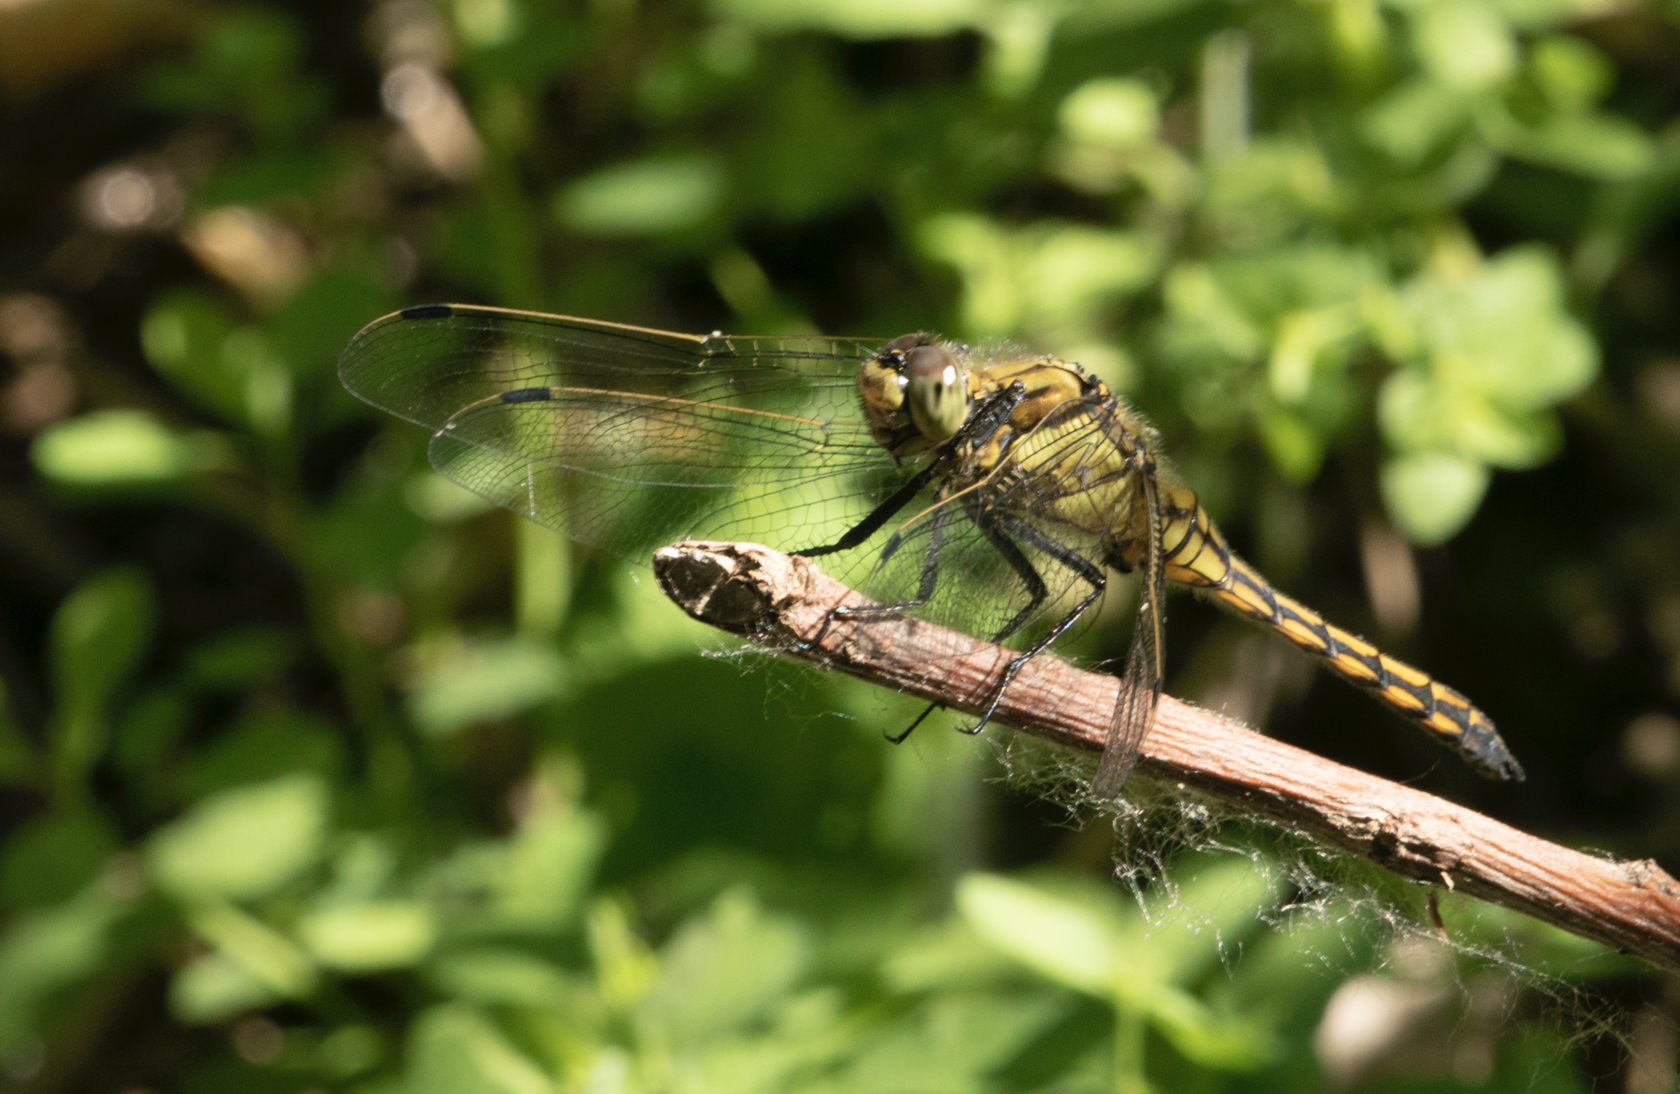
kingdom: Animalia
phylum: Arthropoda
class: Insecta
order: Odonata
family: Libellulidae
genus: Orthetrum
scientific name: Orthetrum cancellatum
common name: Black-tailed skimmer
